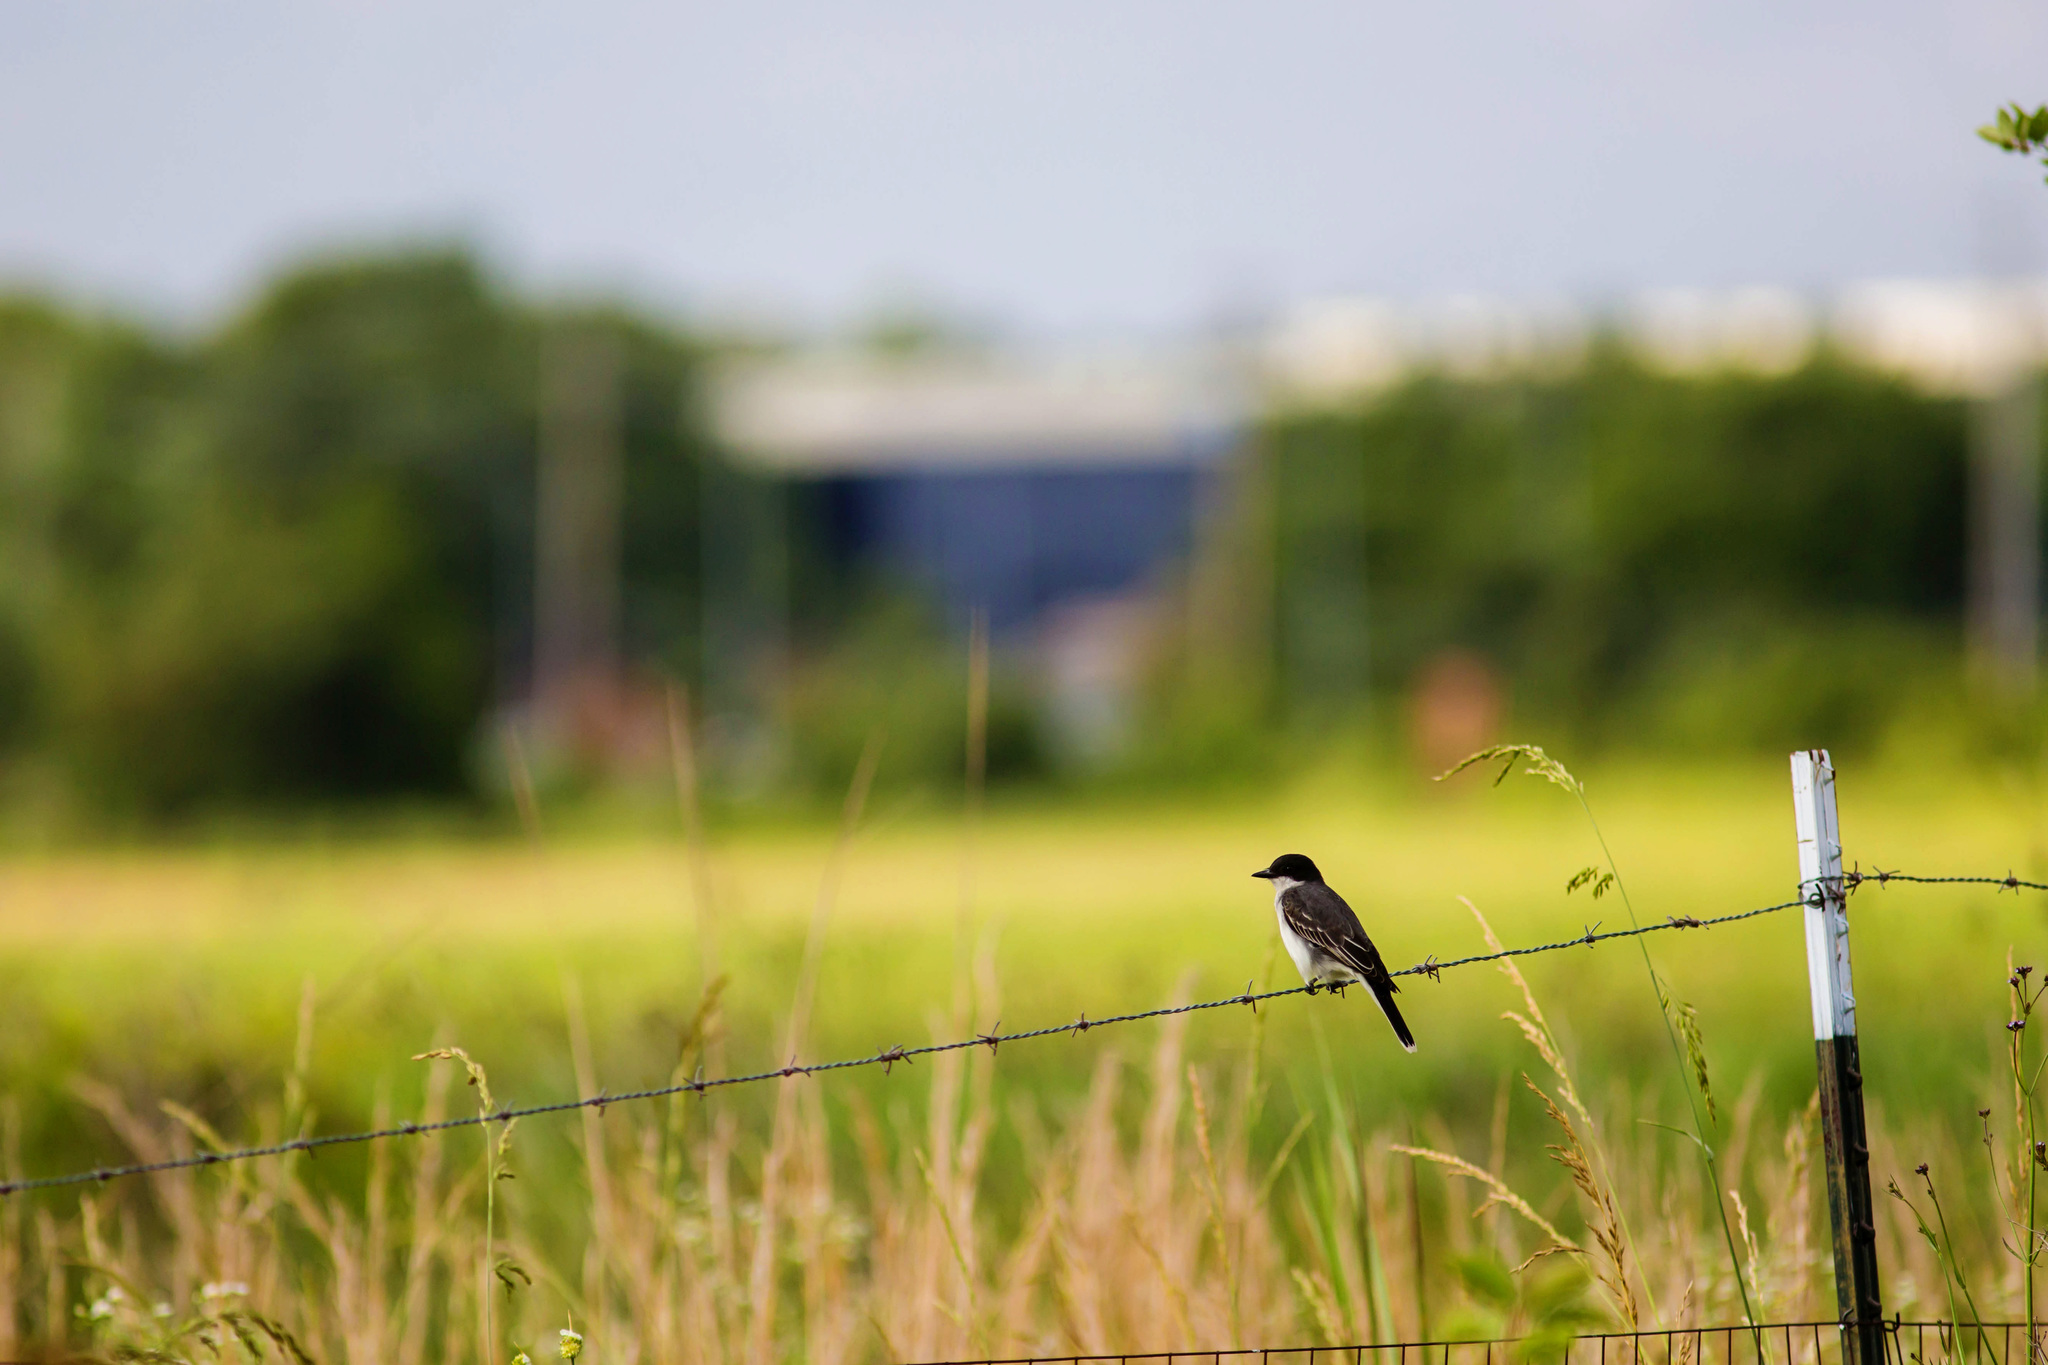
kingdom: Animalia
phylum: Chordata
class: Aves
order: Passeriformes
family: Tyrannidae
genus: Tyrannus
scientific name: Tyrannus tyrannus
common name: Eastern kingbird
